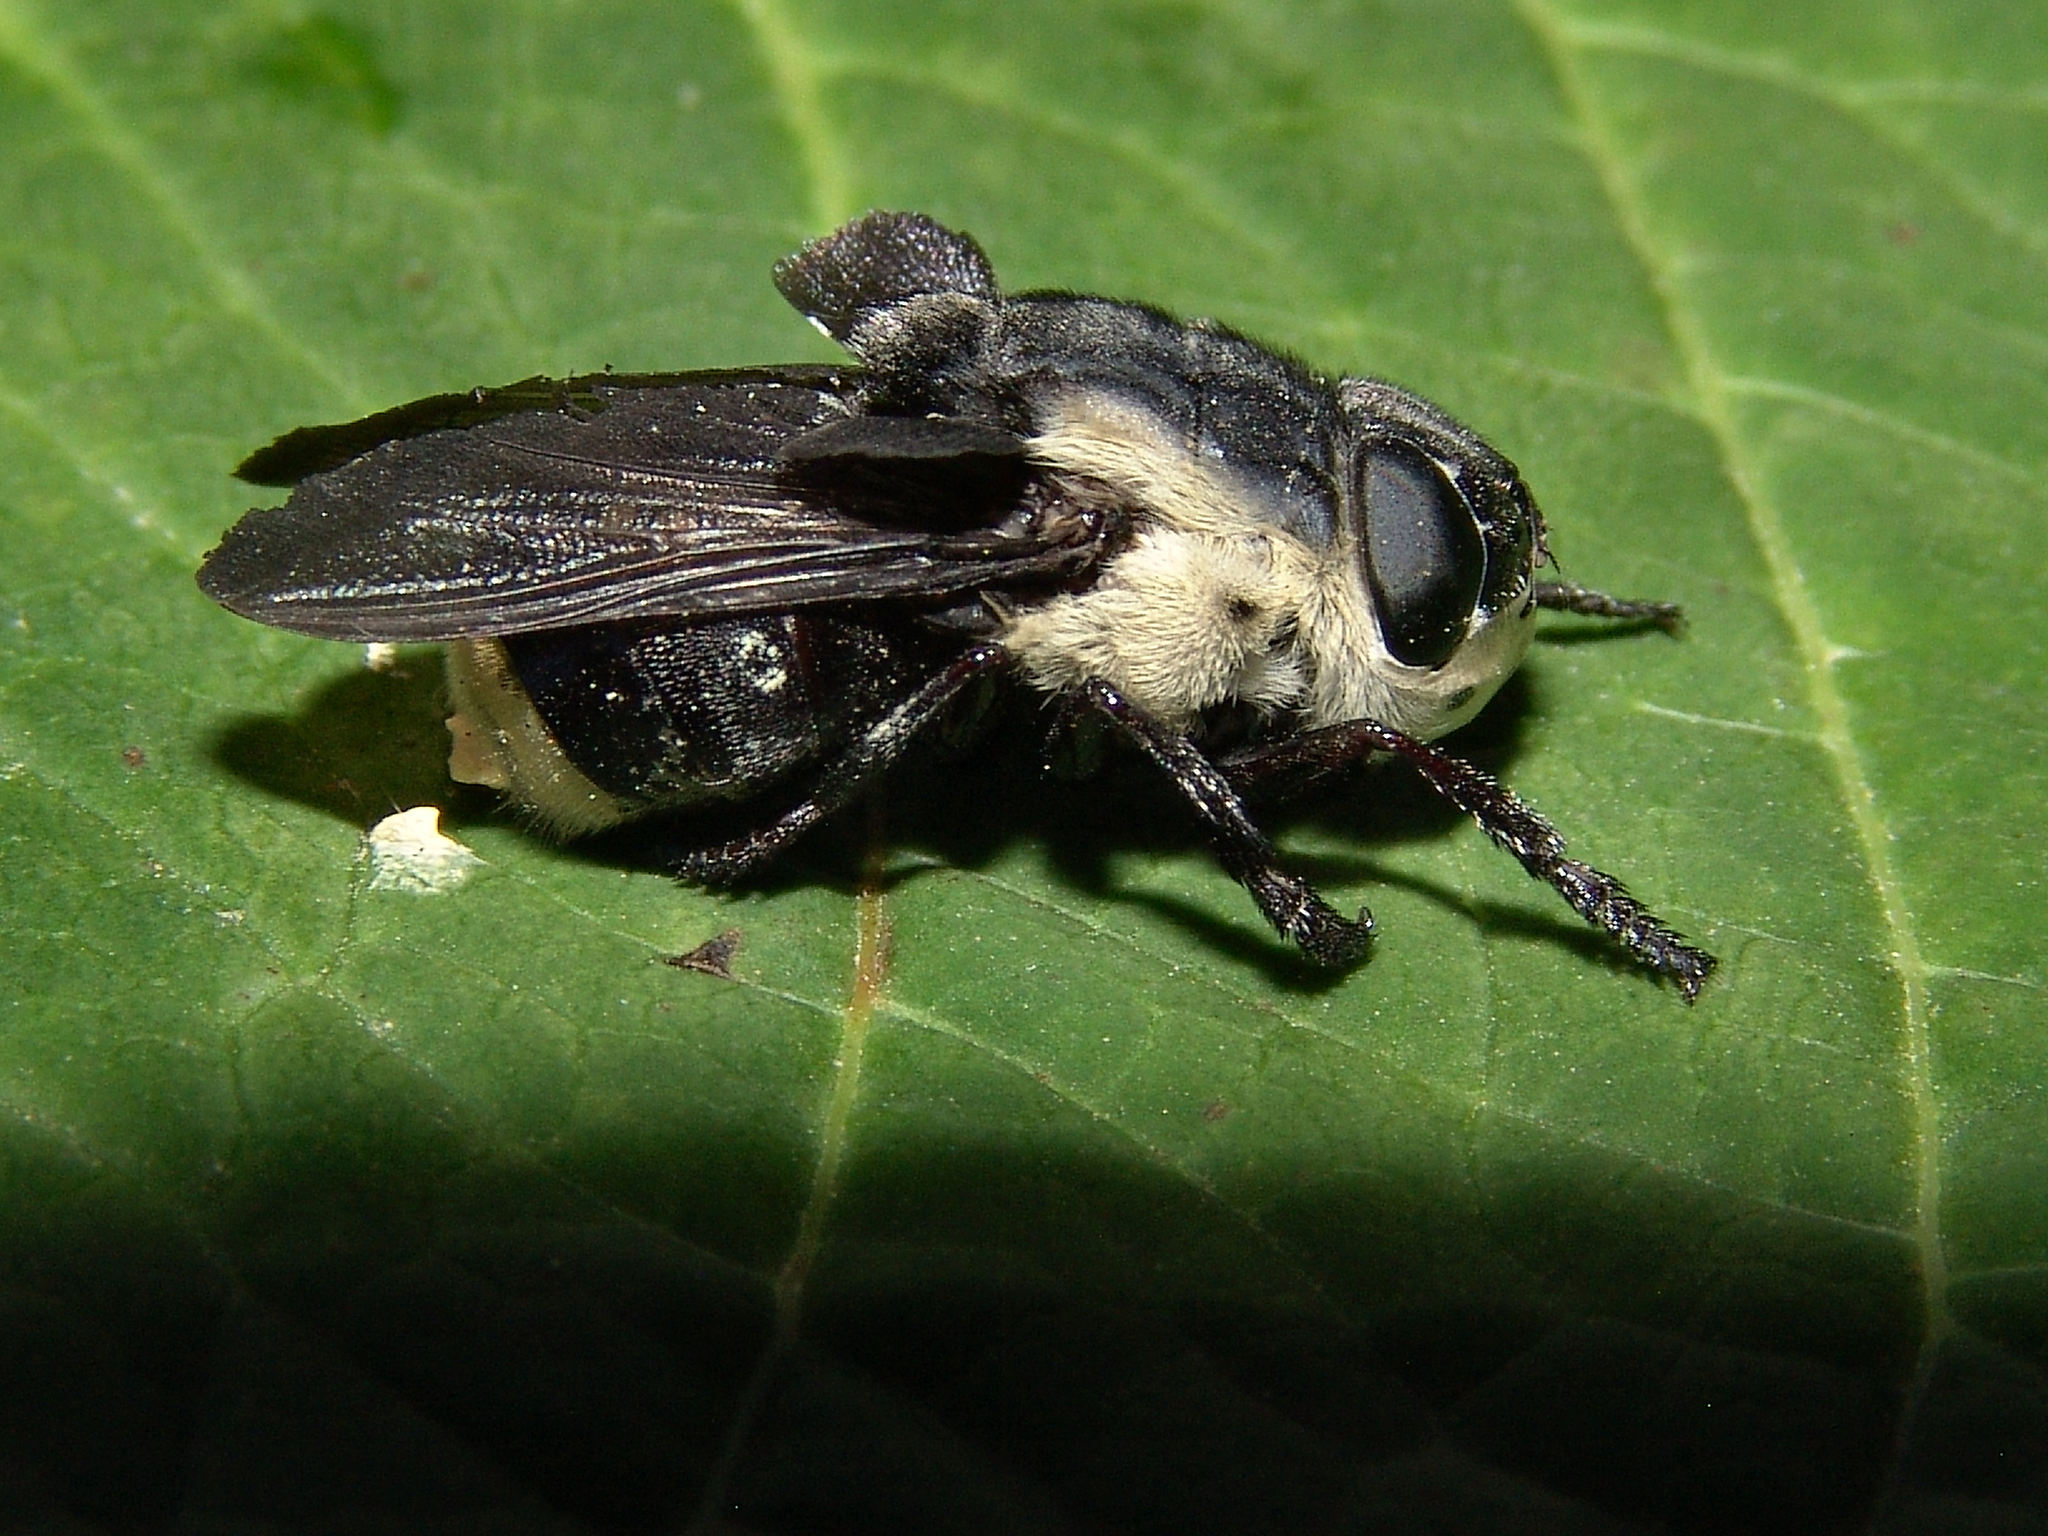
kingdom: Animalia
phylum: Arthropoda
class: Insecta
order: Diptera
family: Oestridae
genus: Cuterebra
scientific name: Cuterebra fontinella
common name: Mouse bot fly
